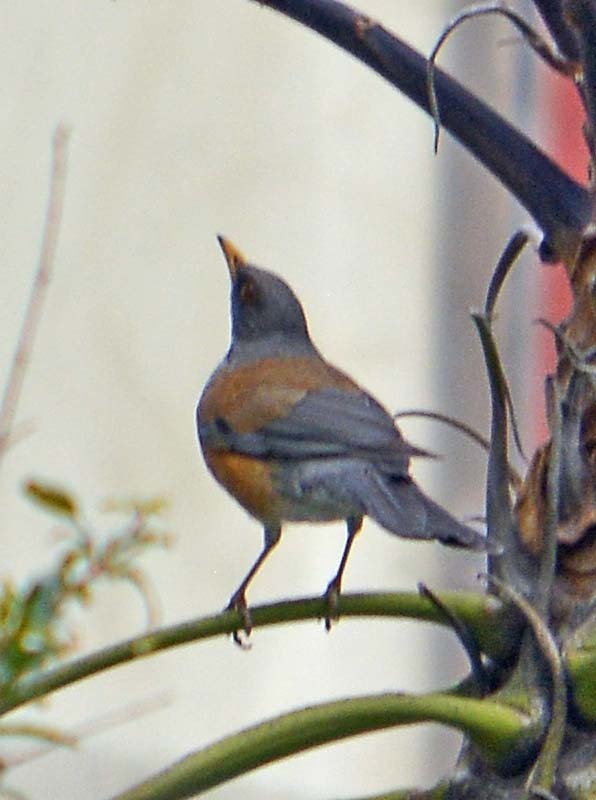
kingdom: Animalia
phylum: Chordata
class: Aves
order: Passeriformes
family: Turdidae
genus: Turdus
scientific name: Turdus rufopalliatus
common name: Rufous-backed robin
